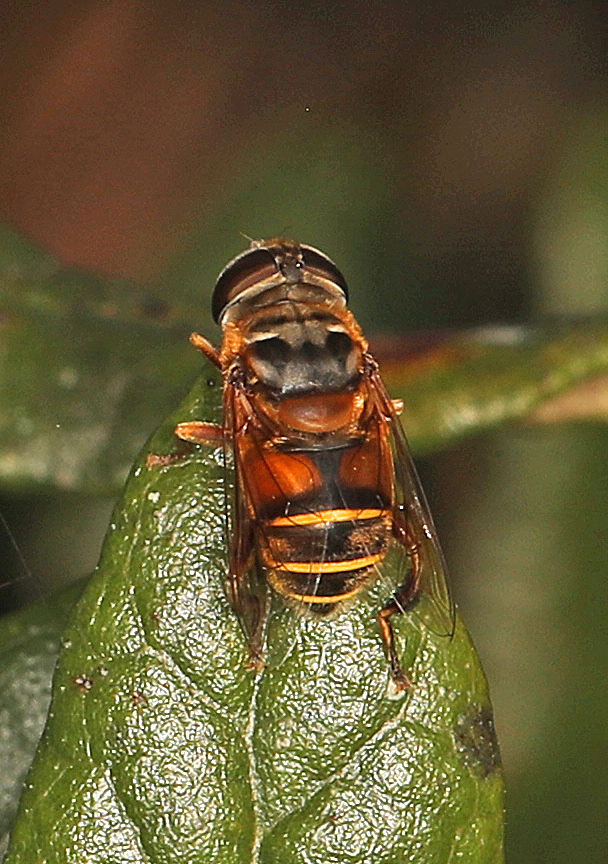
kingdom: Animalia
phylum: Arthropoda
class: Insecta
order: Diptera
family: Syrphidae
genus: Palpada
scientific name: Palpada vinetorum
